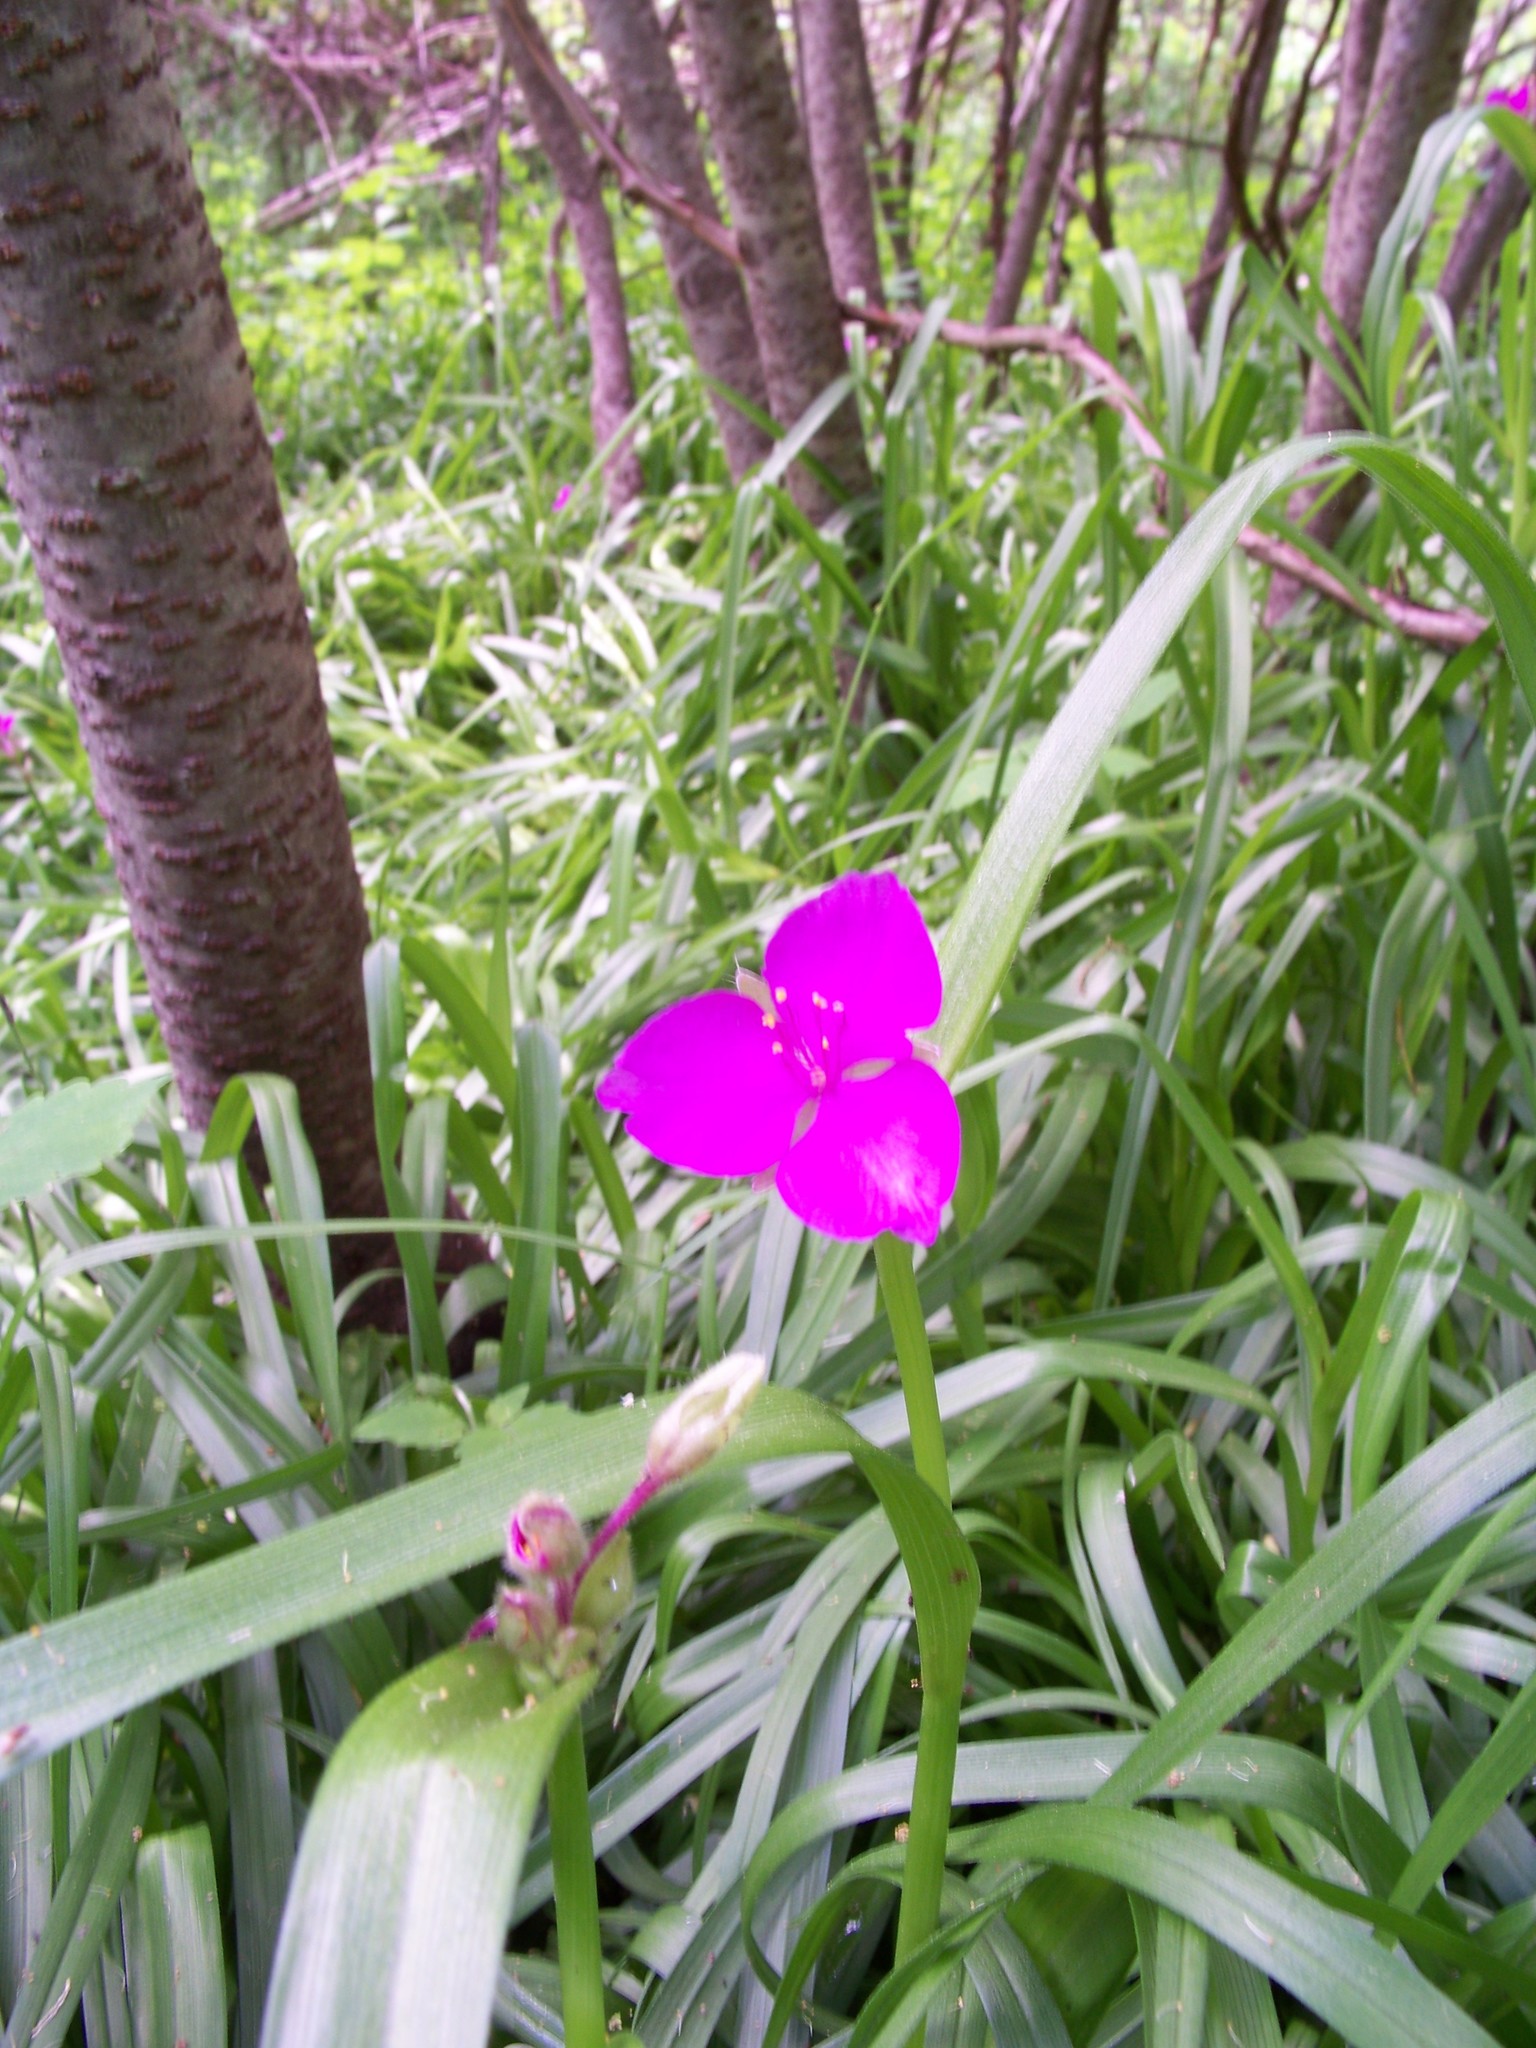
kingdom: Plantae
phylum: Tracheophyta
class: Liliopsida
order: Commelinales
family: Commelinaceae
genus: Tradescantia
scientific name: Tradescantia virginiana
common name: Spiderwort
